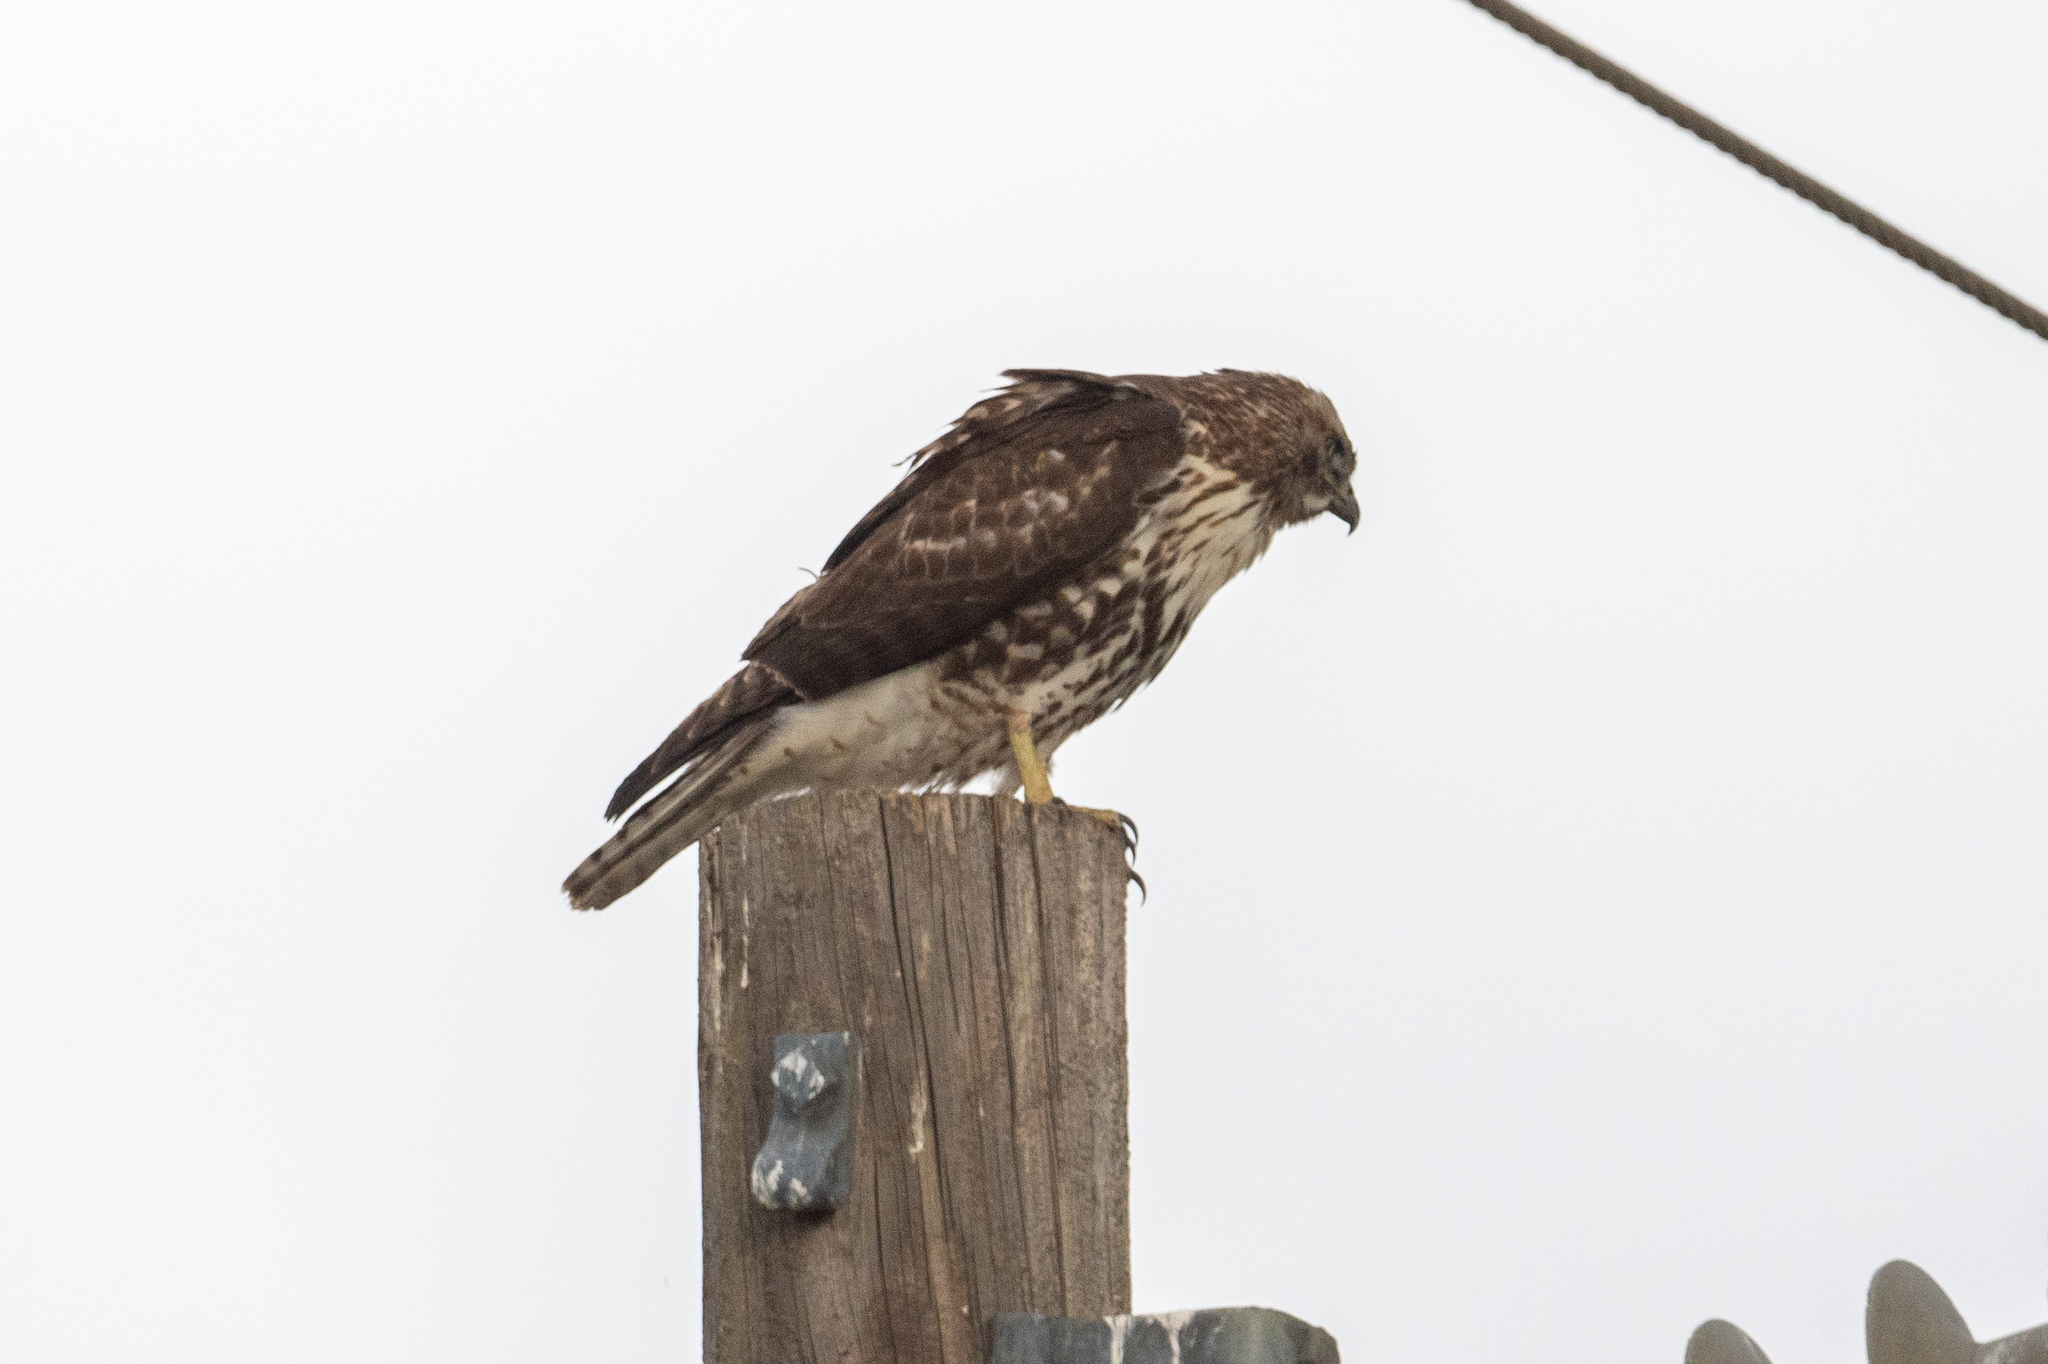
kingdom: Animalia
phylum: Chordata
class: Aves
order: Accipitriformes
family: Accipitridae
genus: Buteo
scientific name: Buteo jamaicensis
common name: Red-tailed hawk
